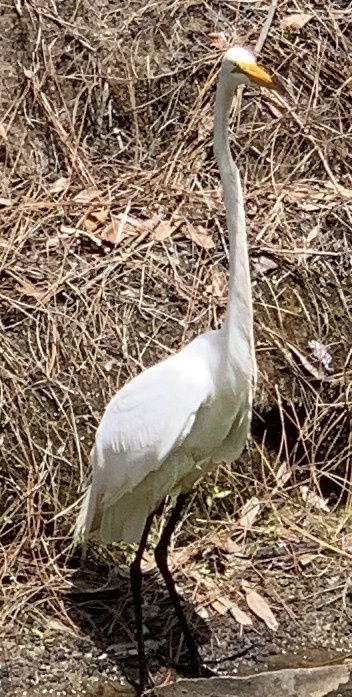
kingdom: Animalia
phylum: Chordata
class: Aves
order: Pelecaniformes
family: Ardeidae
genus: Ardea
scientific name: Ardea alba
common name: Great egret
